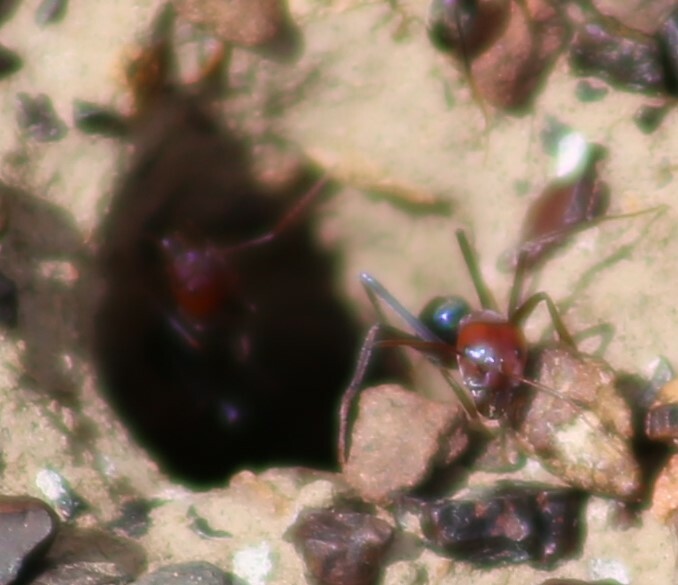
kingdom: Animalia
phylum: Arthropoda
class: Insecta
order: Hymenoptera
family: Formicidae
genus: Iridomyrmex
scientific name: Iridomyrmex purpureus
